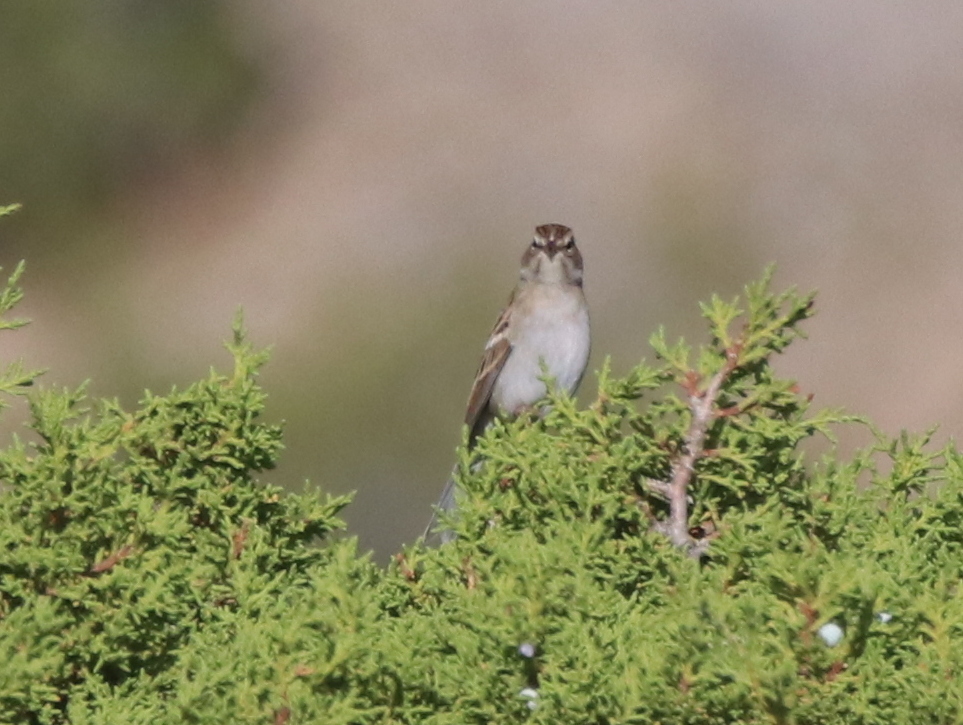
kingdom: Animalia
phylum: Chordata
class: Aves
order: Passeriformes
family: Passerellidae
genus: Spizella
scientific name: Spizella passerina
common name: Chipping sparrow
